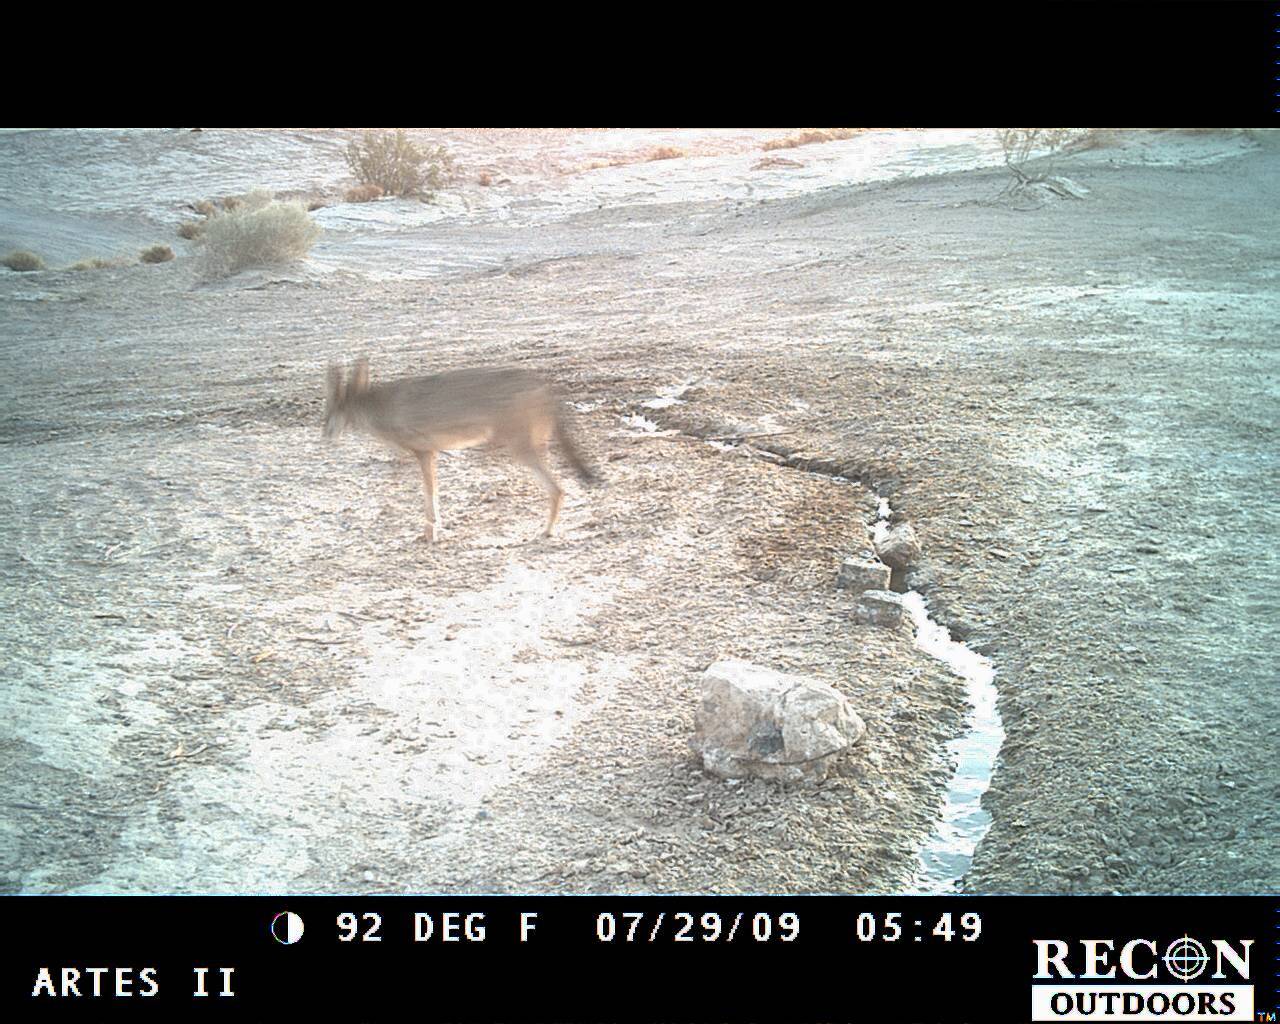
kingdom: Animalia
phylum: Chordata
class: Mammalia
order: Carnivora
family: Canidae
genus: Canis
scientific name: Canis latrans
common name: Coyote
